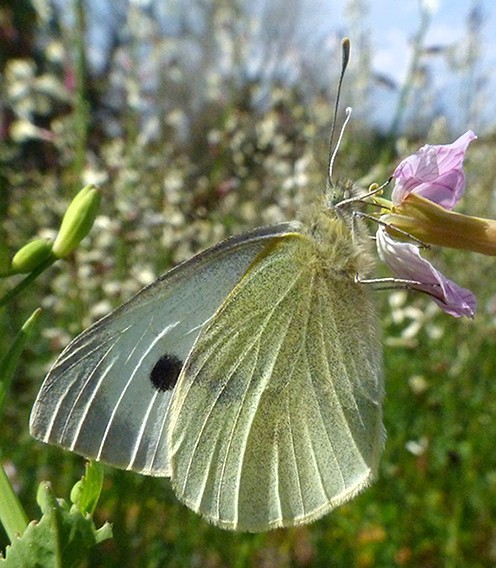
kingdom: Animalia
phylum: Arthropoda
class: Insecta
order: Lepidoptera
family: Pieridae
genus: Pieris
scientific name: Pieris brassicae
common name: Large white
